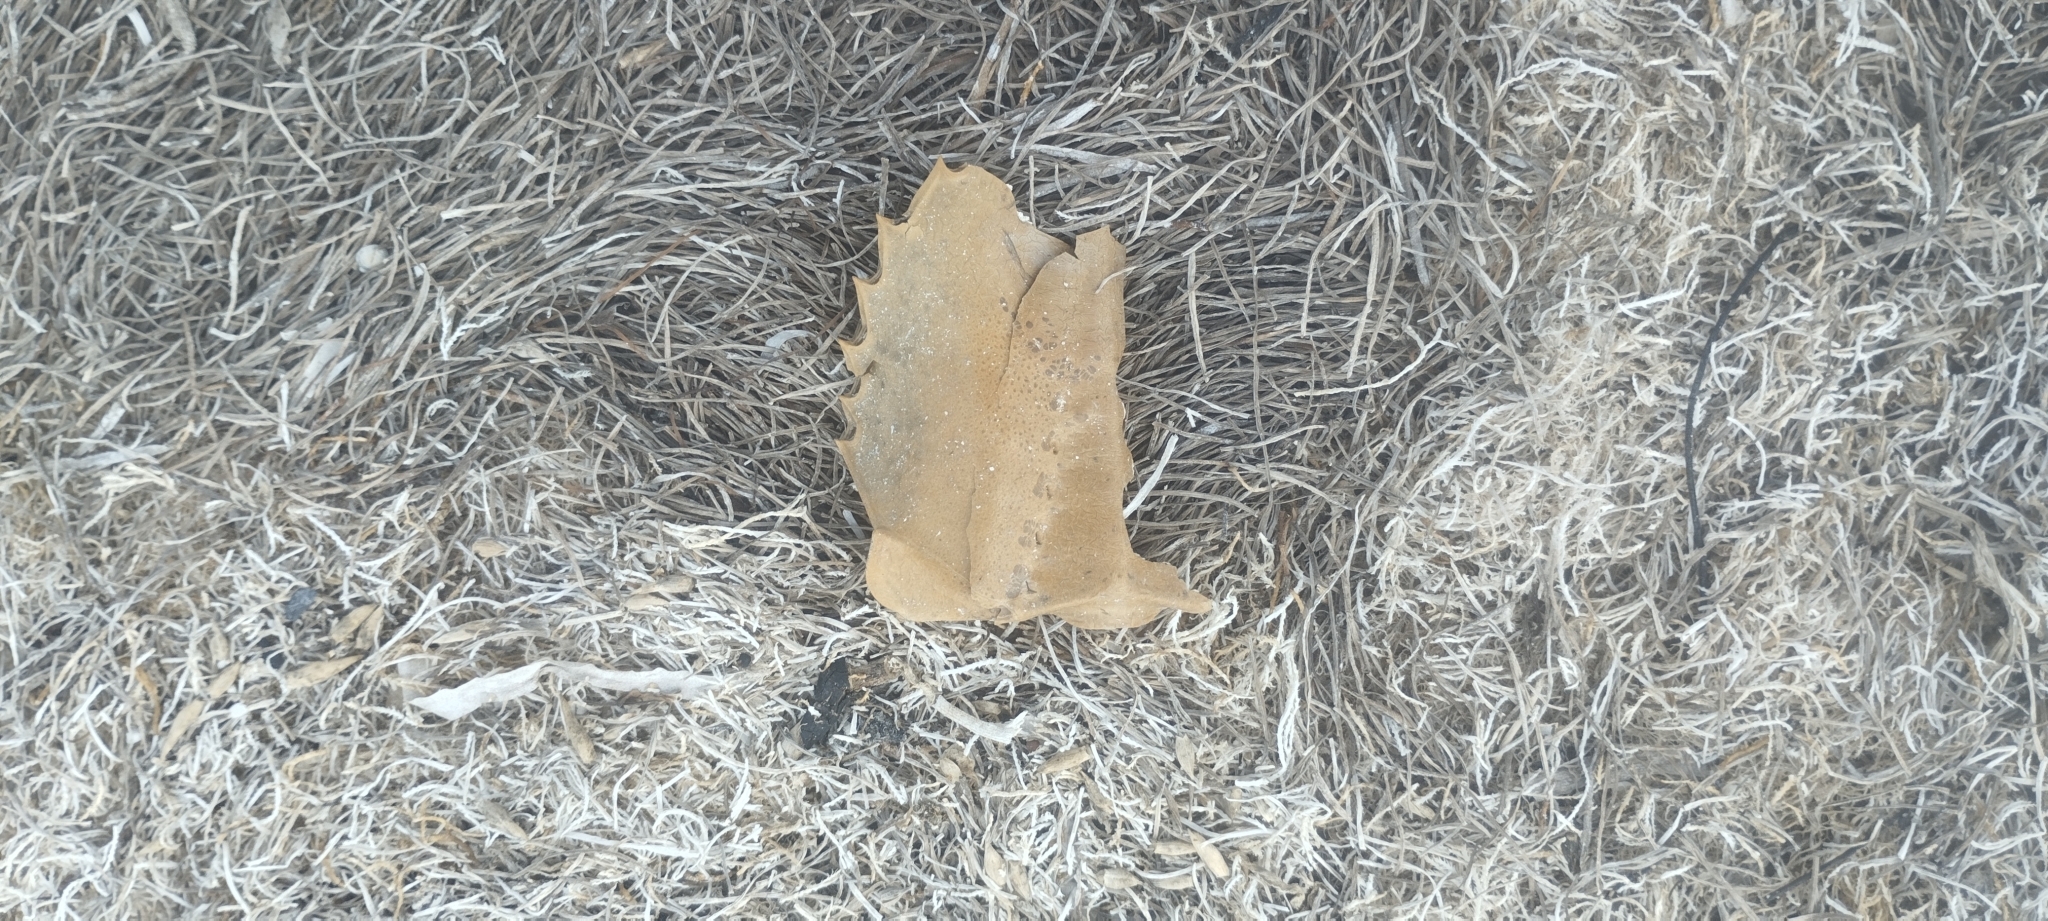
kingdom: Animalia
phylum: Arthropoda
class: Merostomata
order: Xiphosurida
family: Limulidae
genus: Limulus
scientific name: Limulus polyphemus
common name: Horseshoe crab
